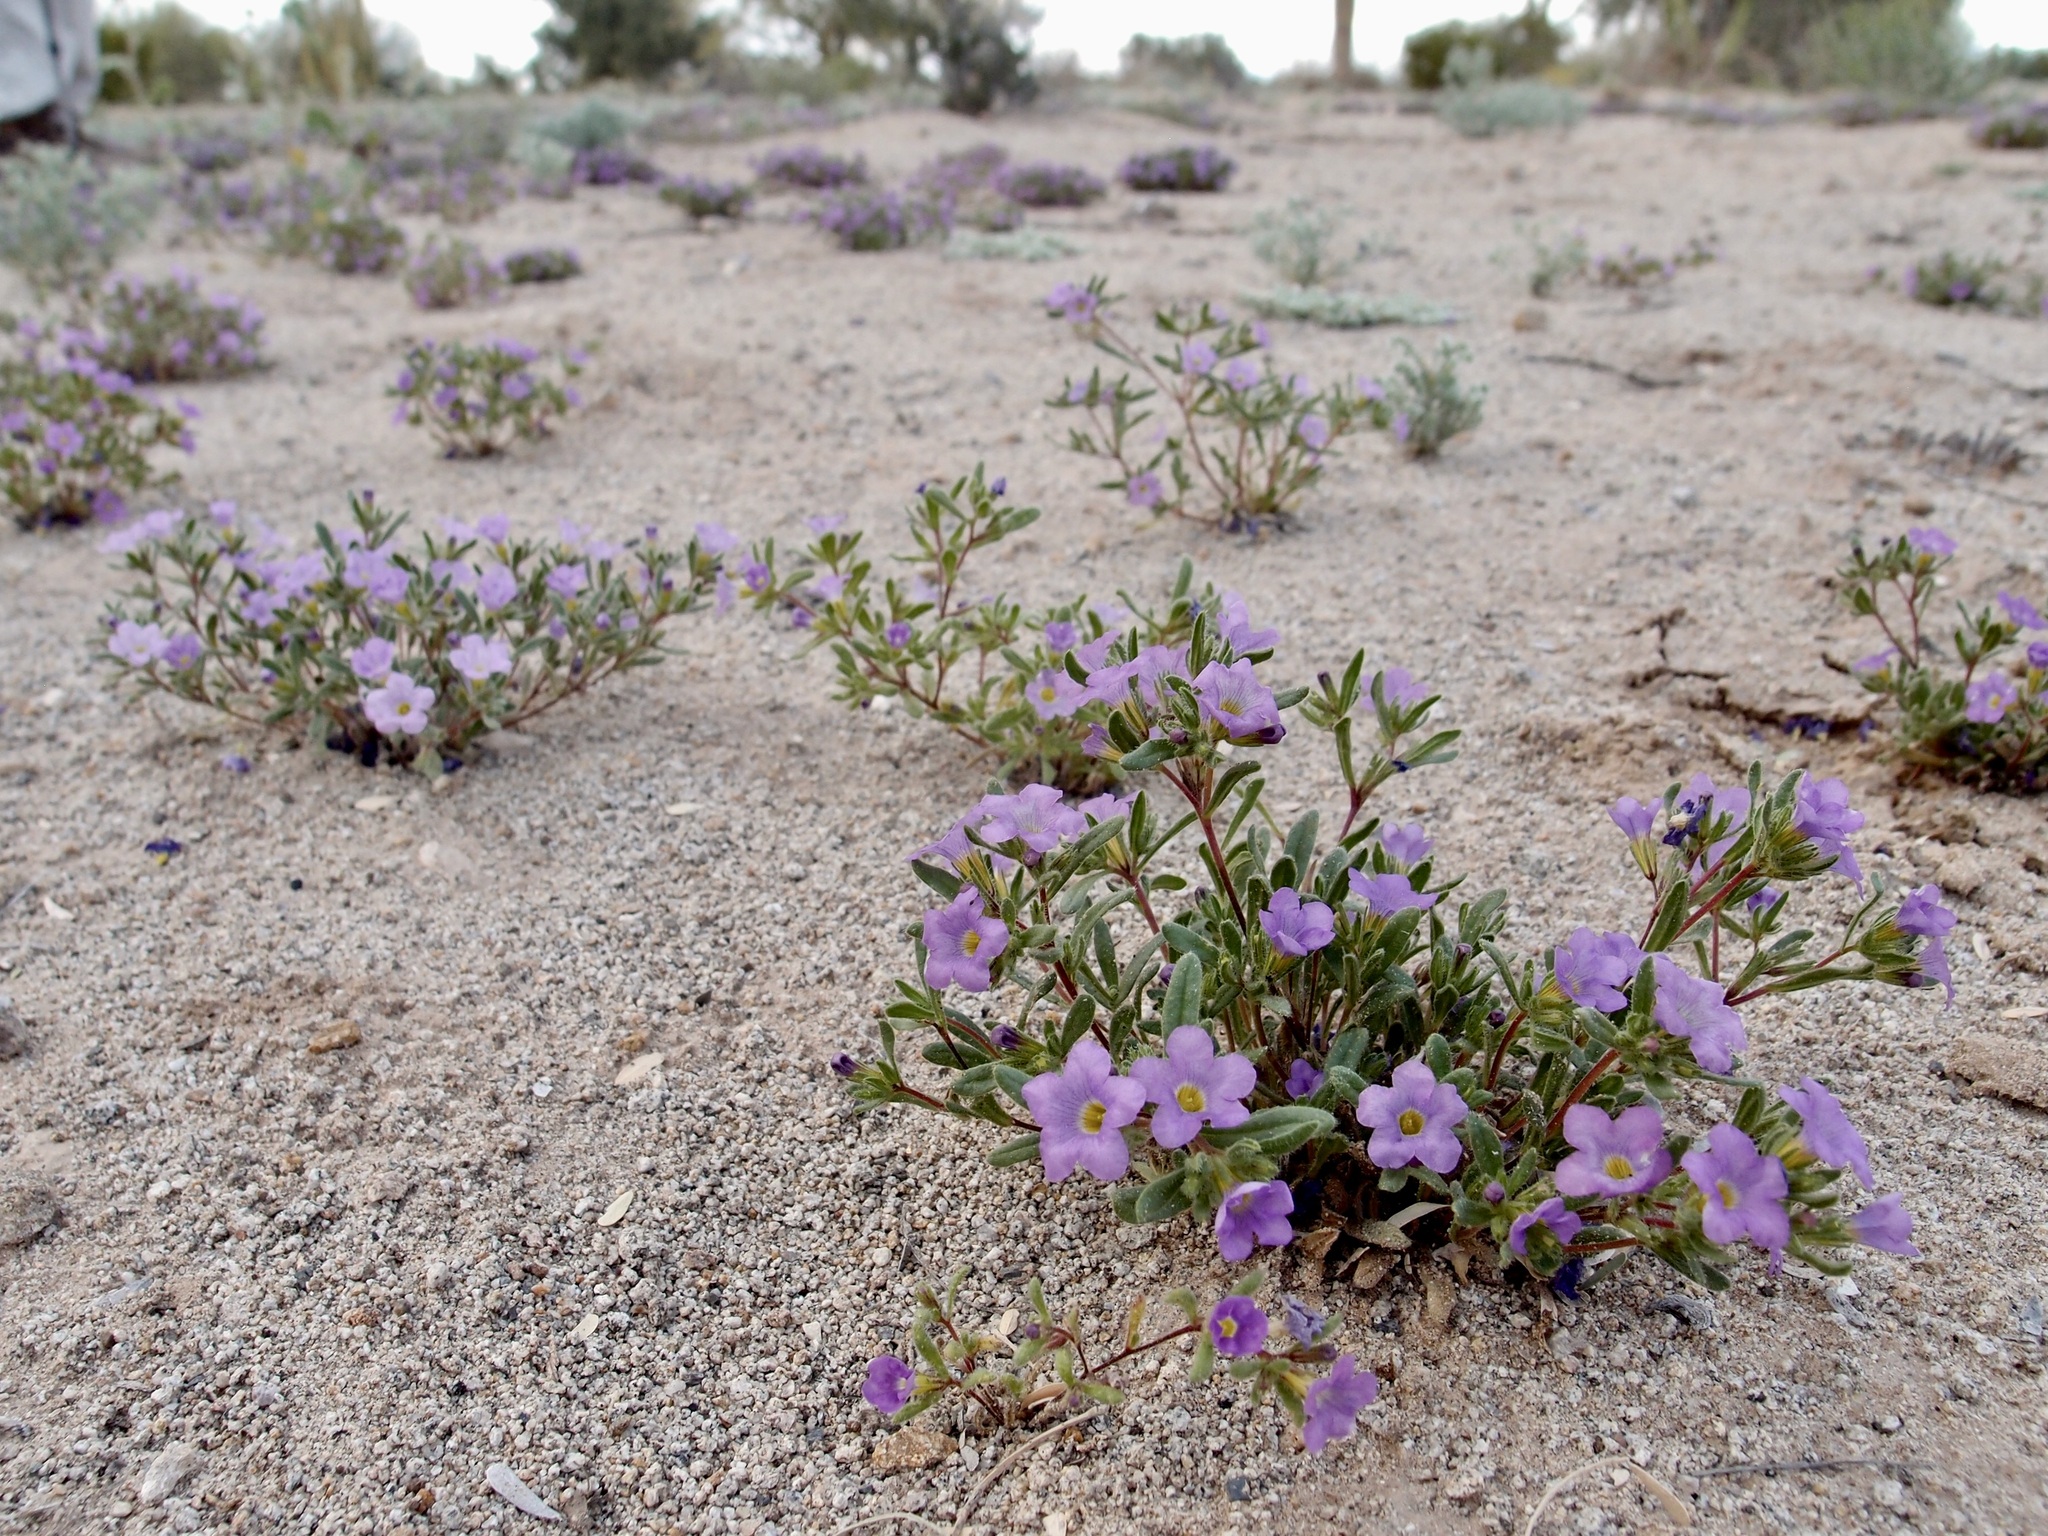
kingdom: Plantae
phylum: Tracheophyta
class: Magnoliopsida
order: Boraginales
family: Namaceae
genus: Nama
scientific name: Nama hispida
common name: Bristly nama
